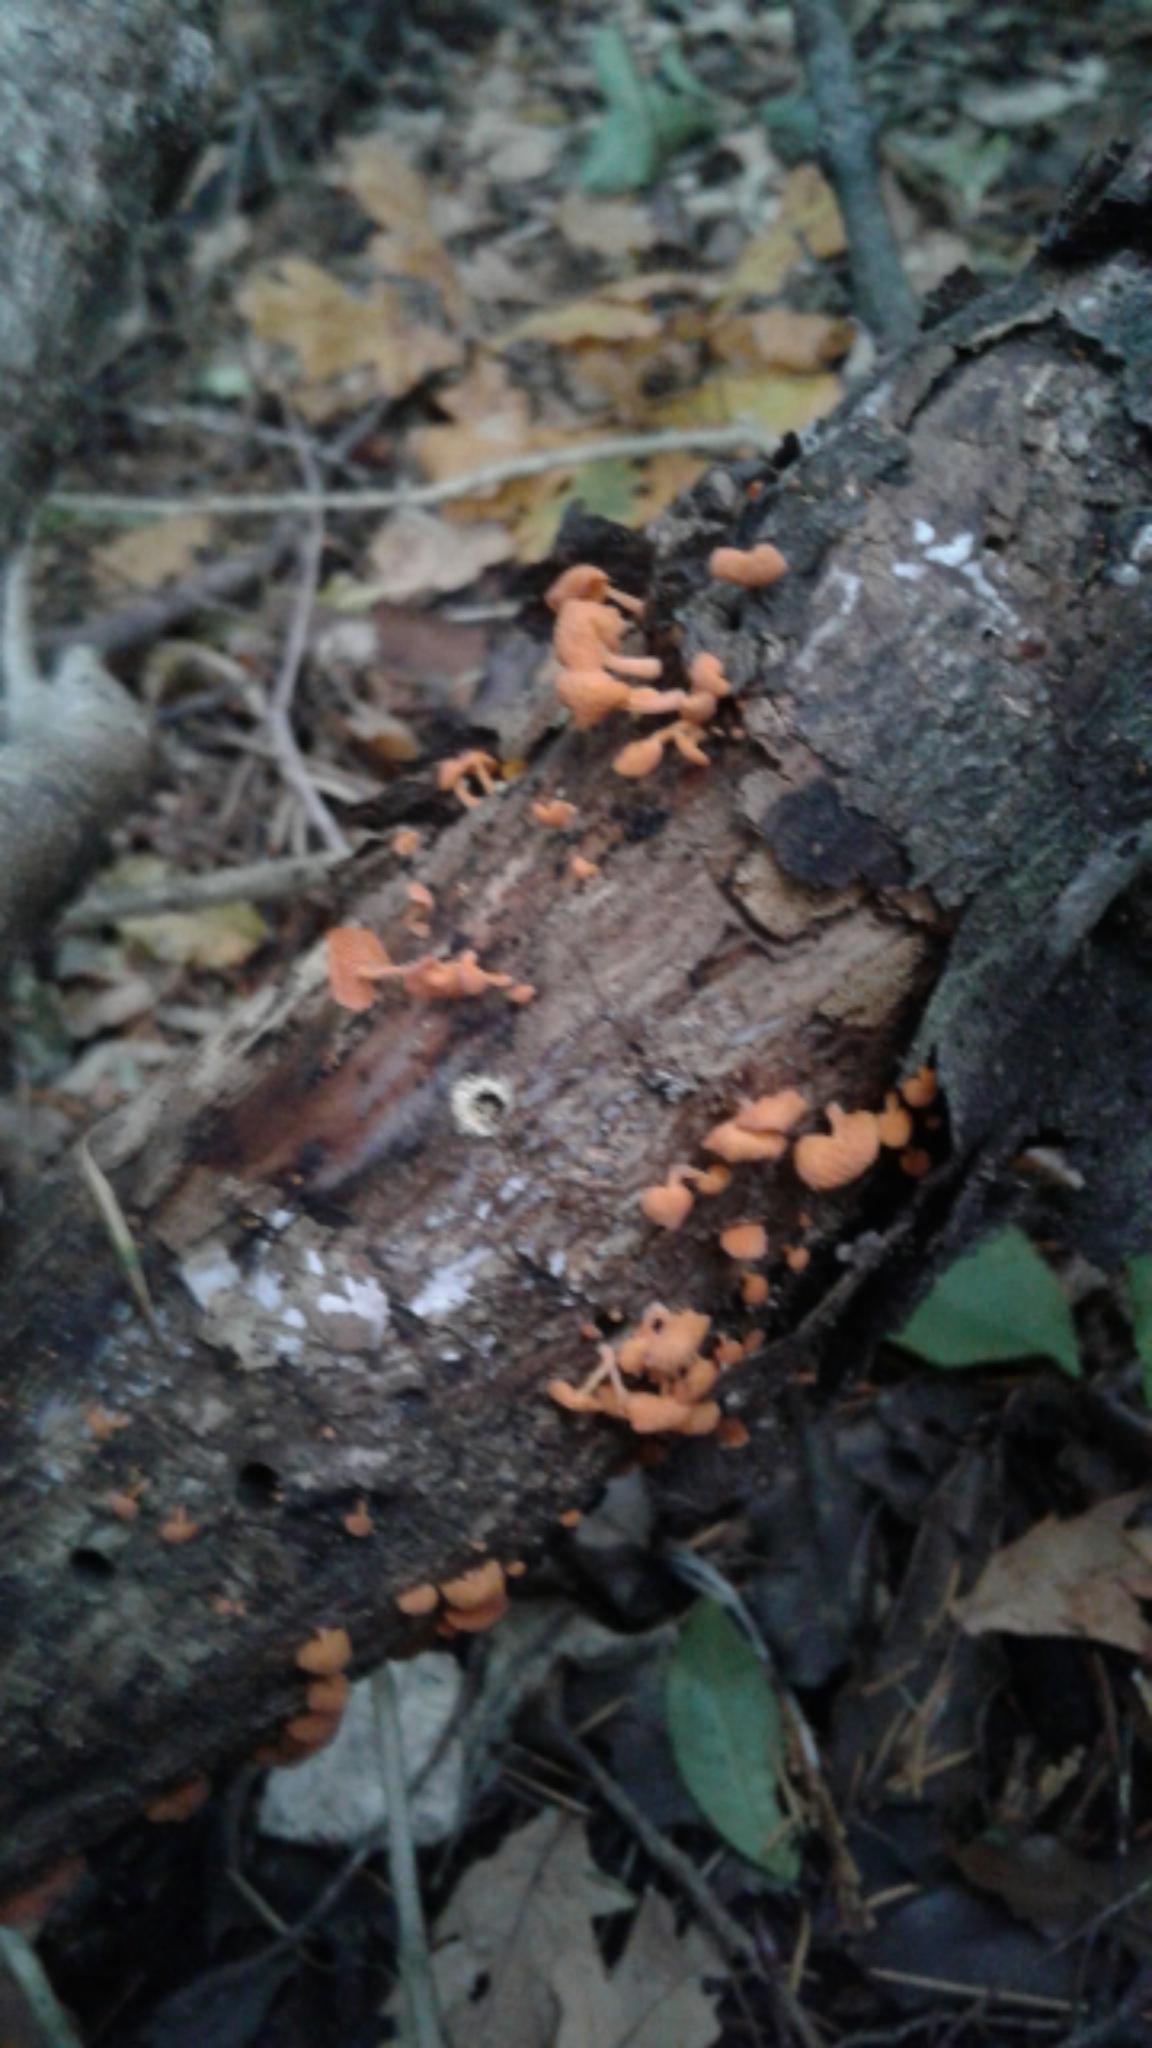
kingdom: Fungi
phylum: Basidiomycota
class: Agaricomycetes
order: Agaricales
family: Mycenaceae
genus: Favolaschia
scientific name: Favolaschia claudopus
